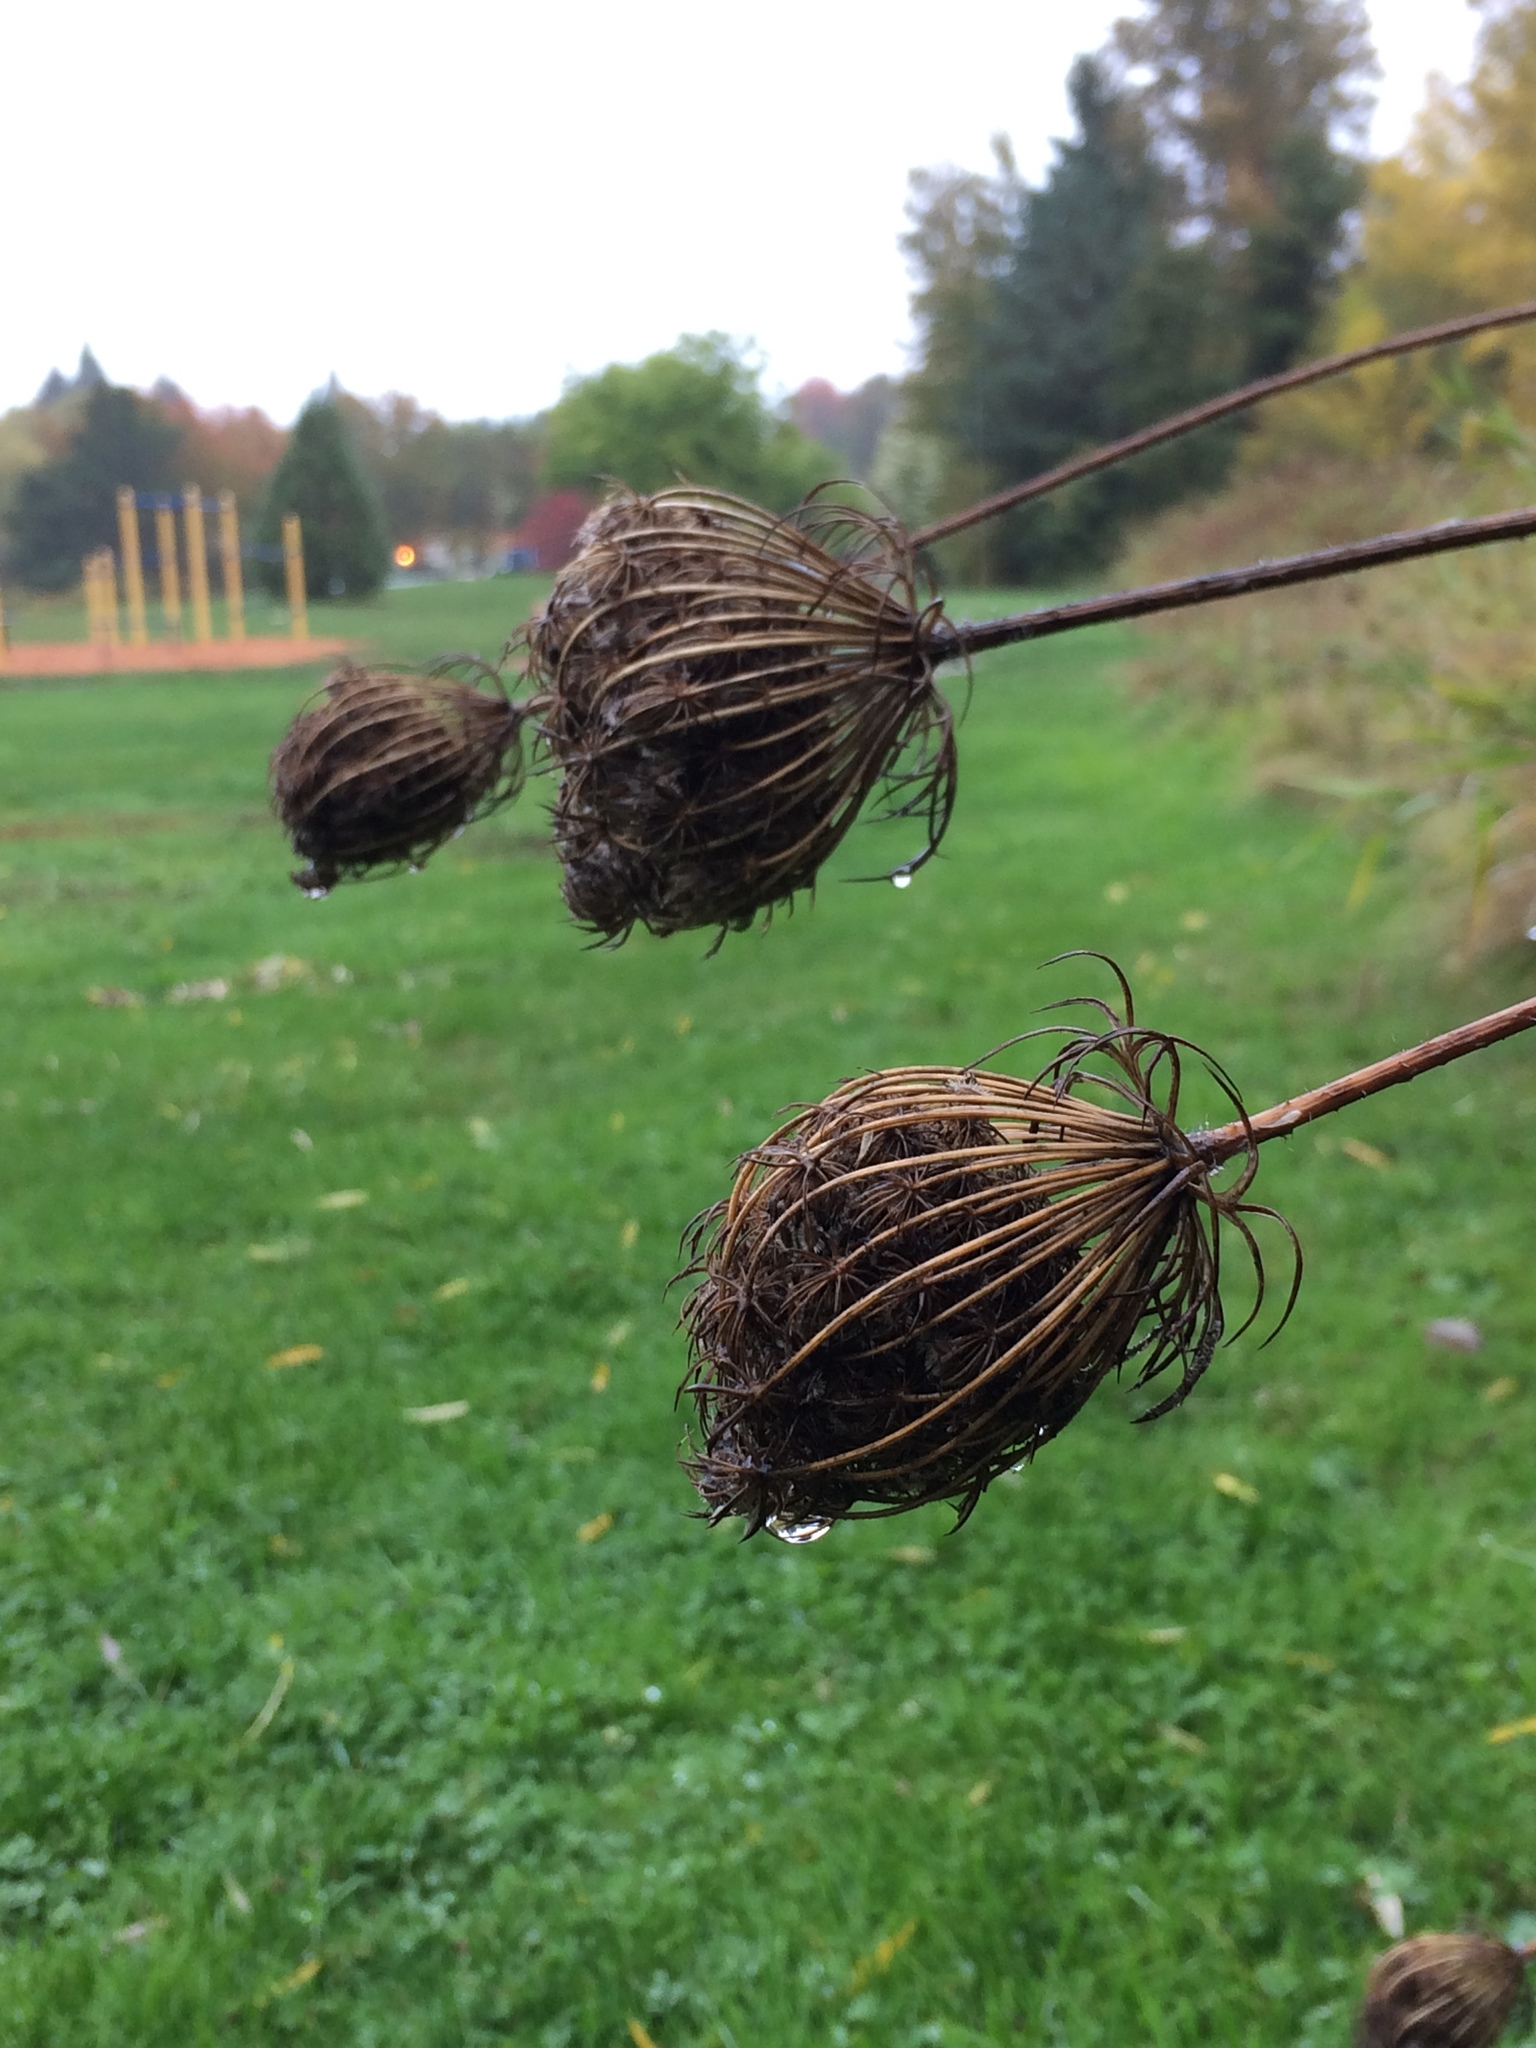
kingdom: Plantae
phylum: Tracheophyta
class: Magnoliopsida
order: Apiales
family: Apiaceae
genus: Daucus
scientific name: Daucus carota
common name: Wild carrot
